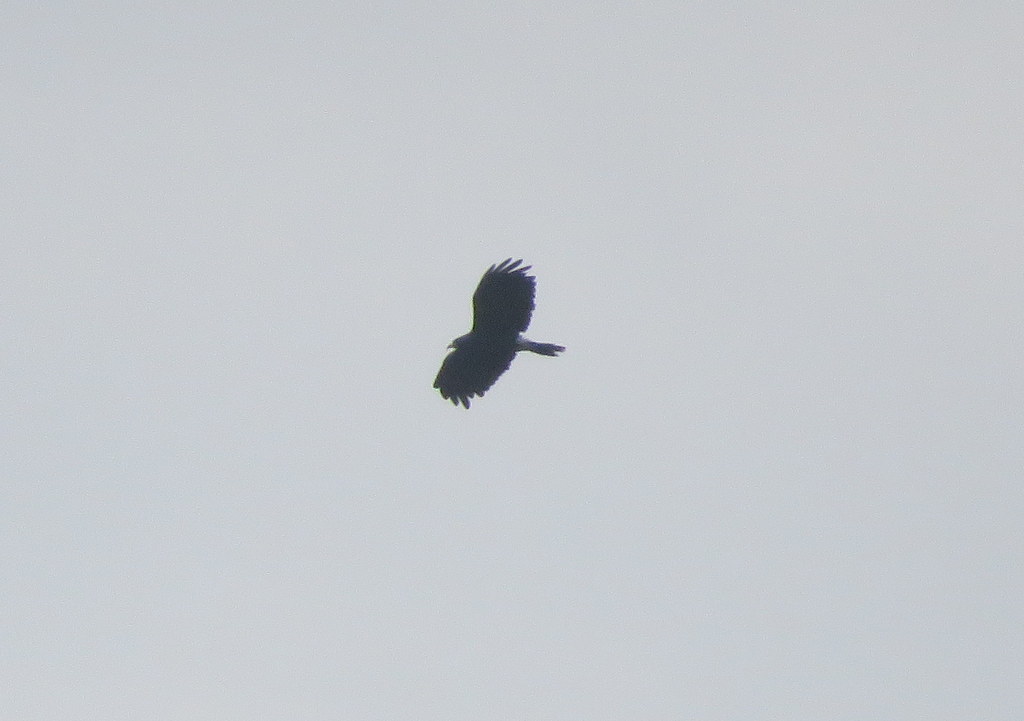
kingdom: Animalia
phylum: Chordata
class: Aves
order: Accipitriformes
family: Accipitridae
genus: Rostrhamus
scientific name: Rostrhamus sociabilis
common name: Snail kite
